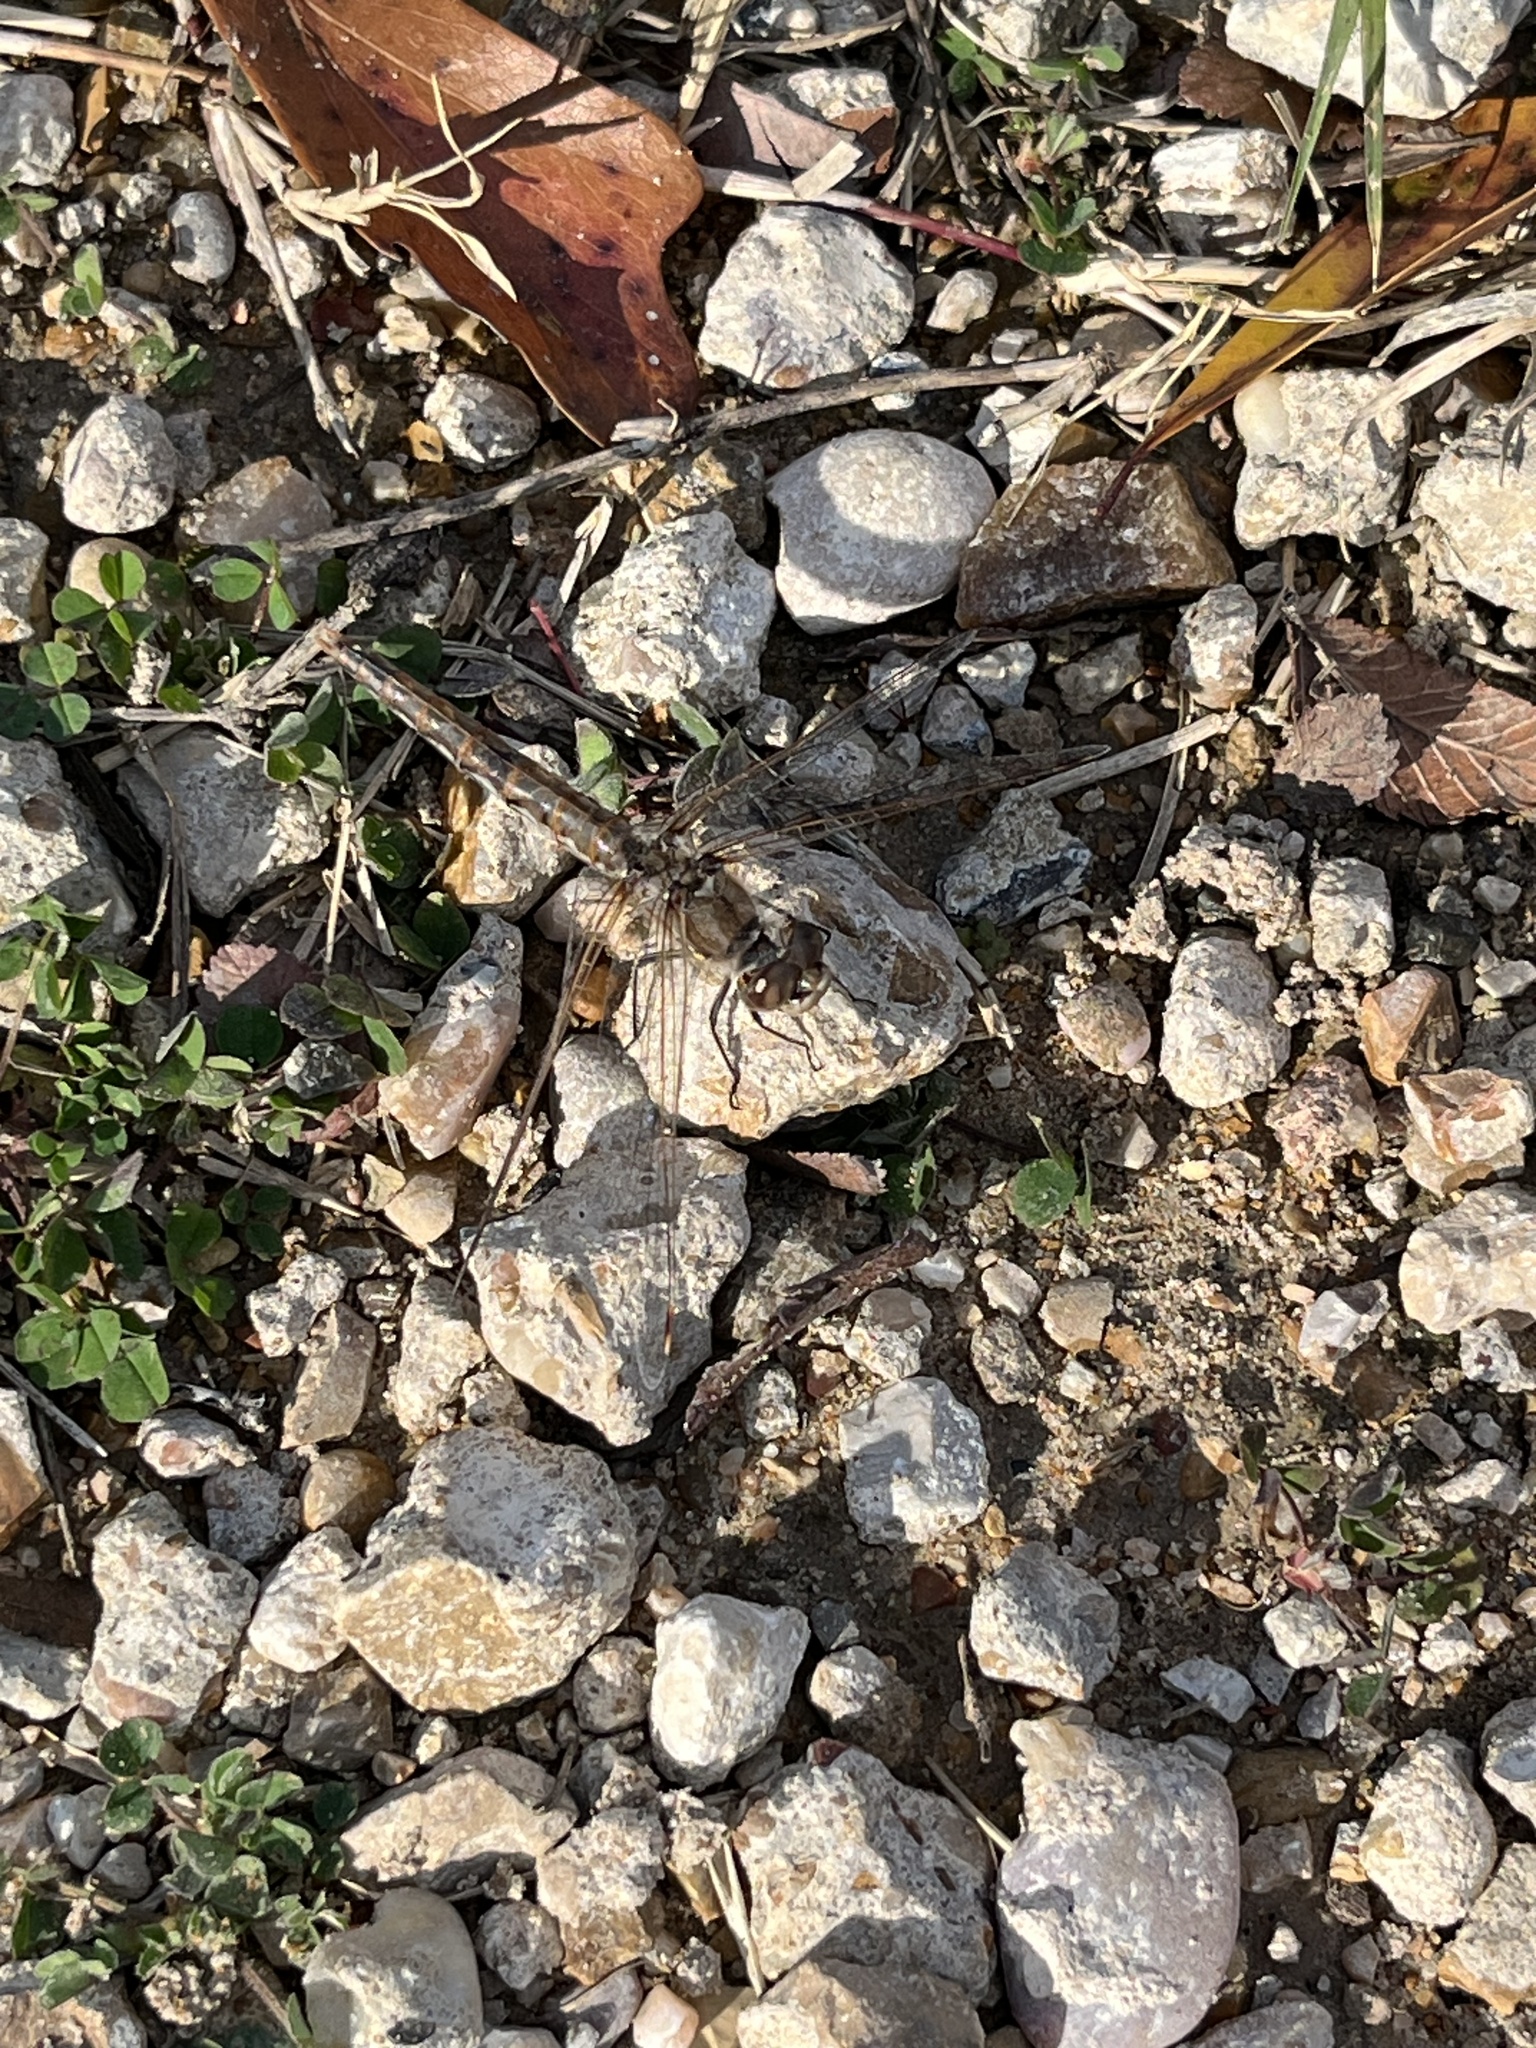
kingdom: Animalia
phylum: Arthropoda
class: Insecta
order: Odonata
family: Libellulidae
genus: Sympetrum
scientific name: Sympetrum corruptum
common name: Variegated meadowhawk
